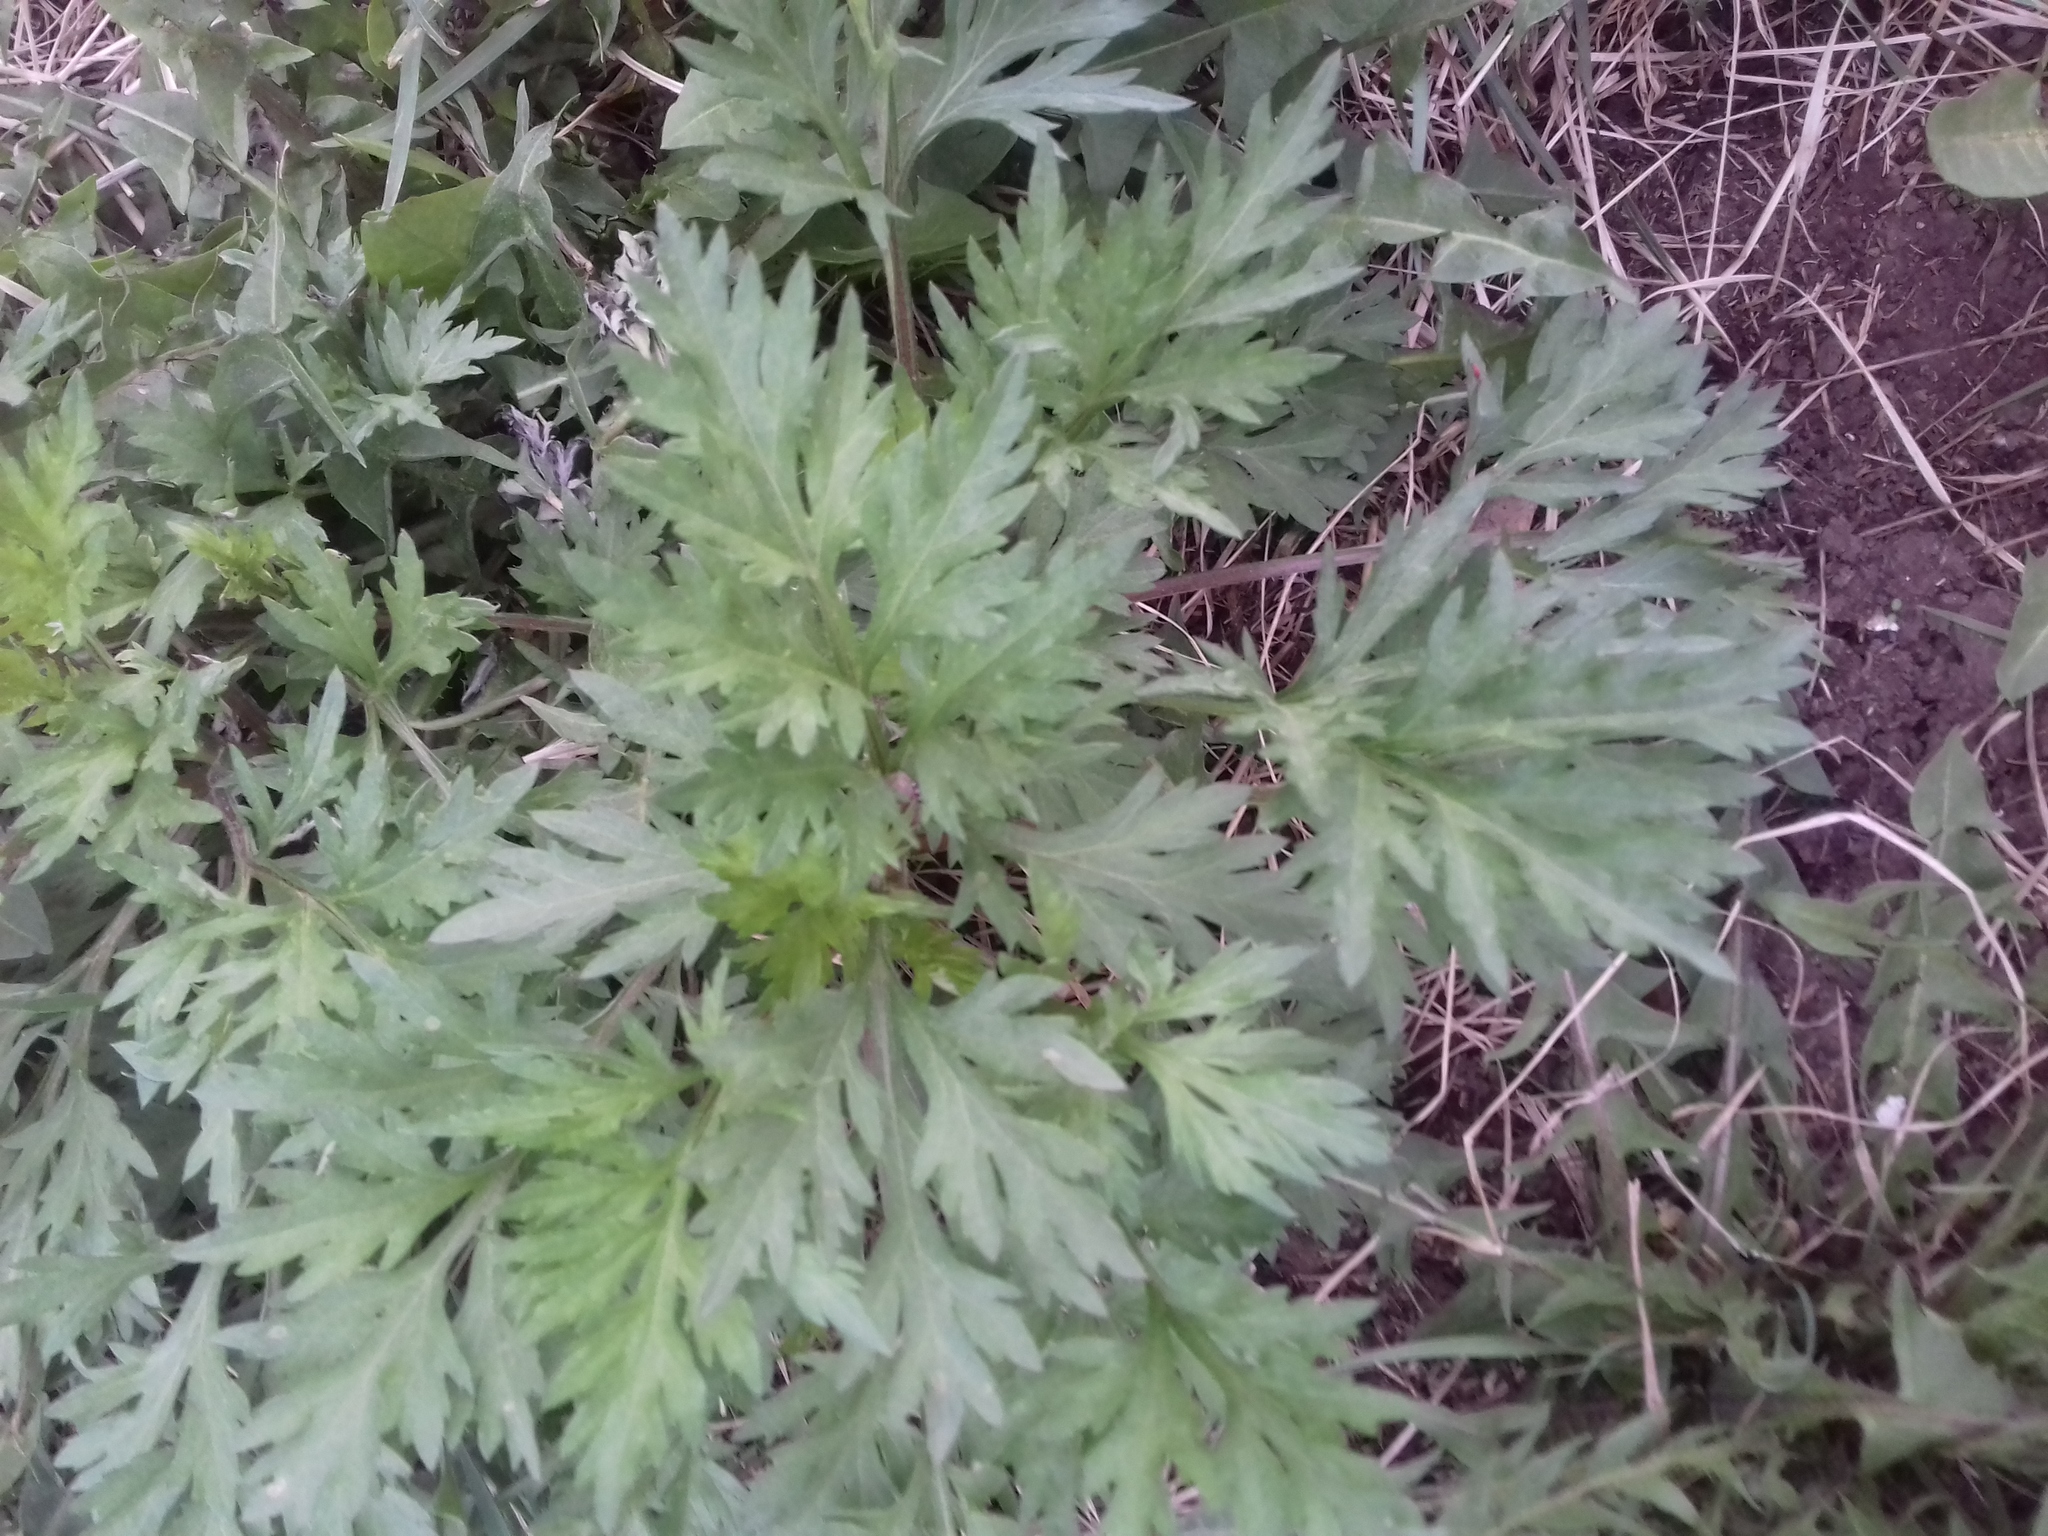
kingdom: Plantae
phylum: Tracheophyta
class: Magnoliopsida
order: Asterales
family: Asteraceae
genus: Artemisia
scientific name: Artemisia vulgaris
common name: Mugwort
